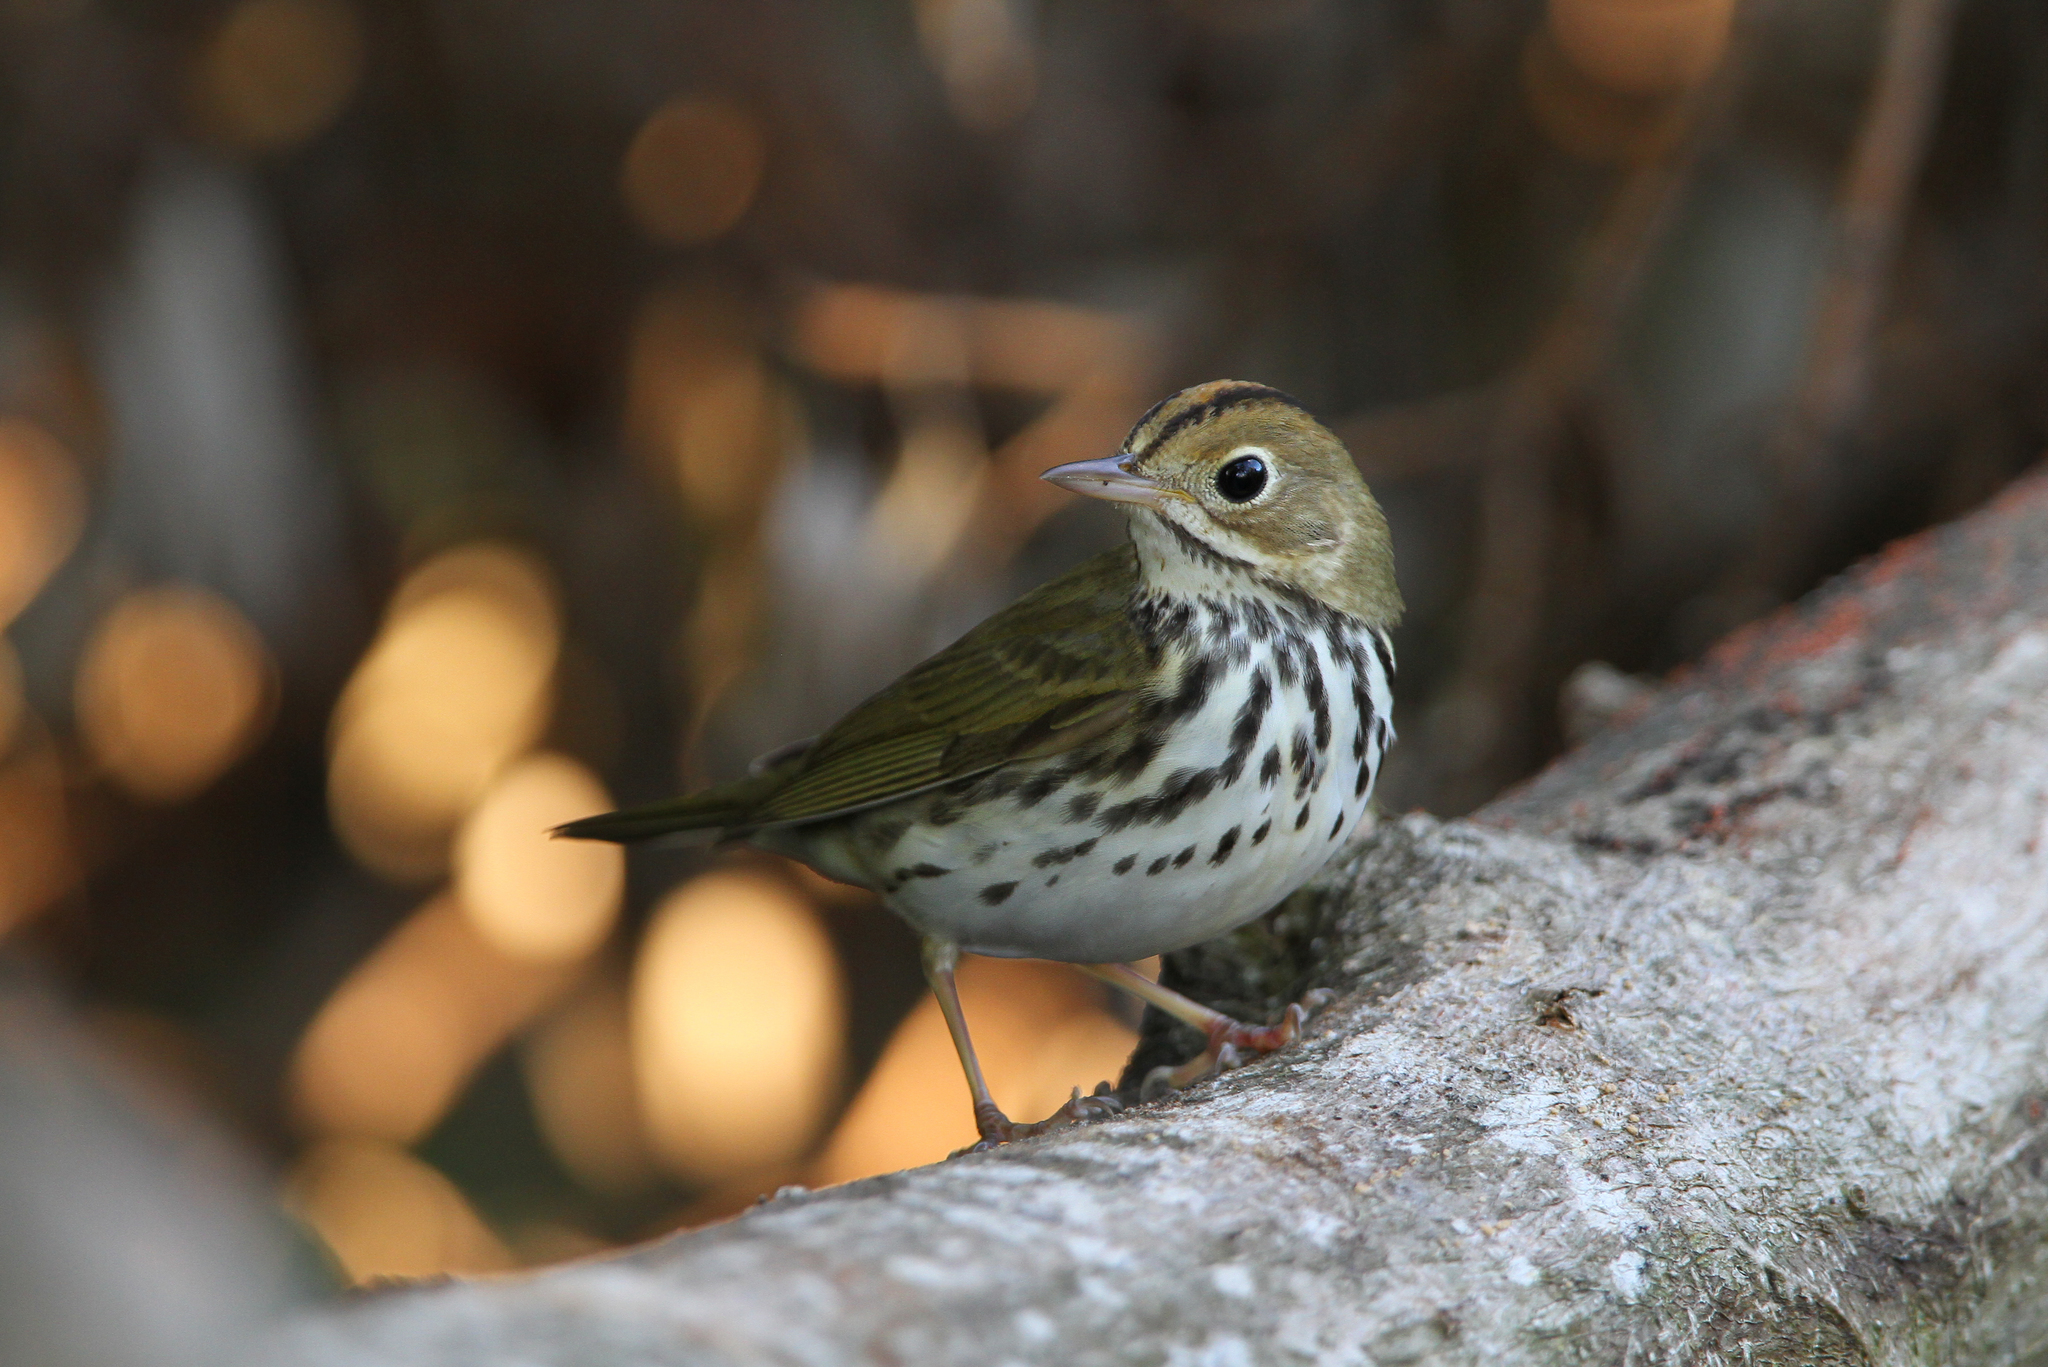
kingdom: Animalia
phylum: Chordata
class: Aves
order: Passeriformes
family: Parulidae
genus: Seiurus
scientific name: Seiurus aurocapilla
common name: Ovenbird
